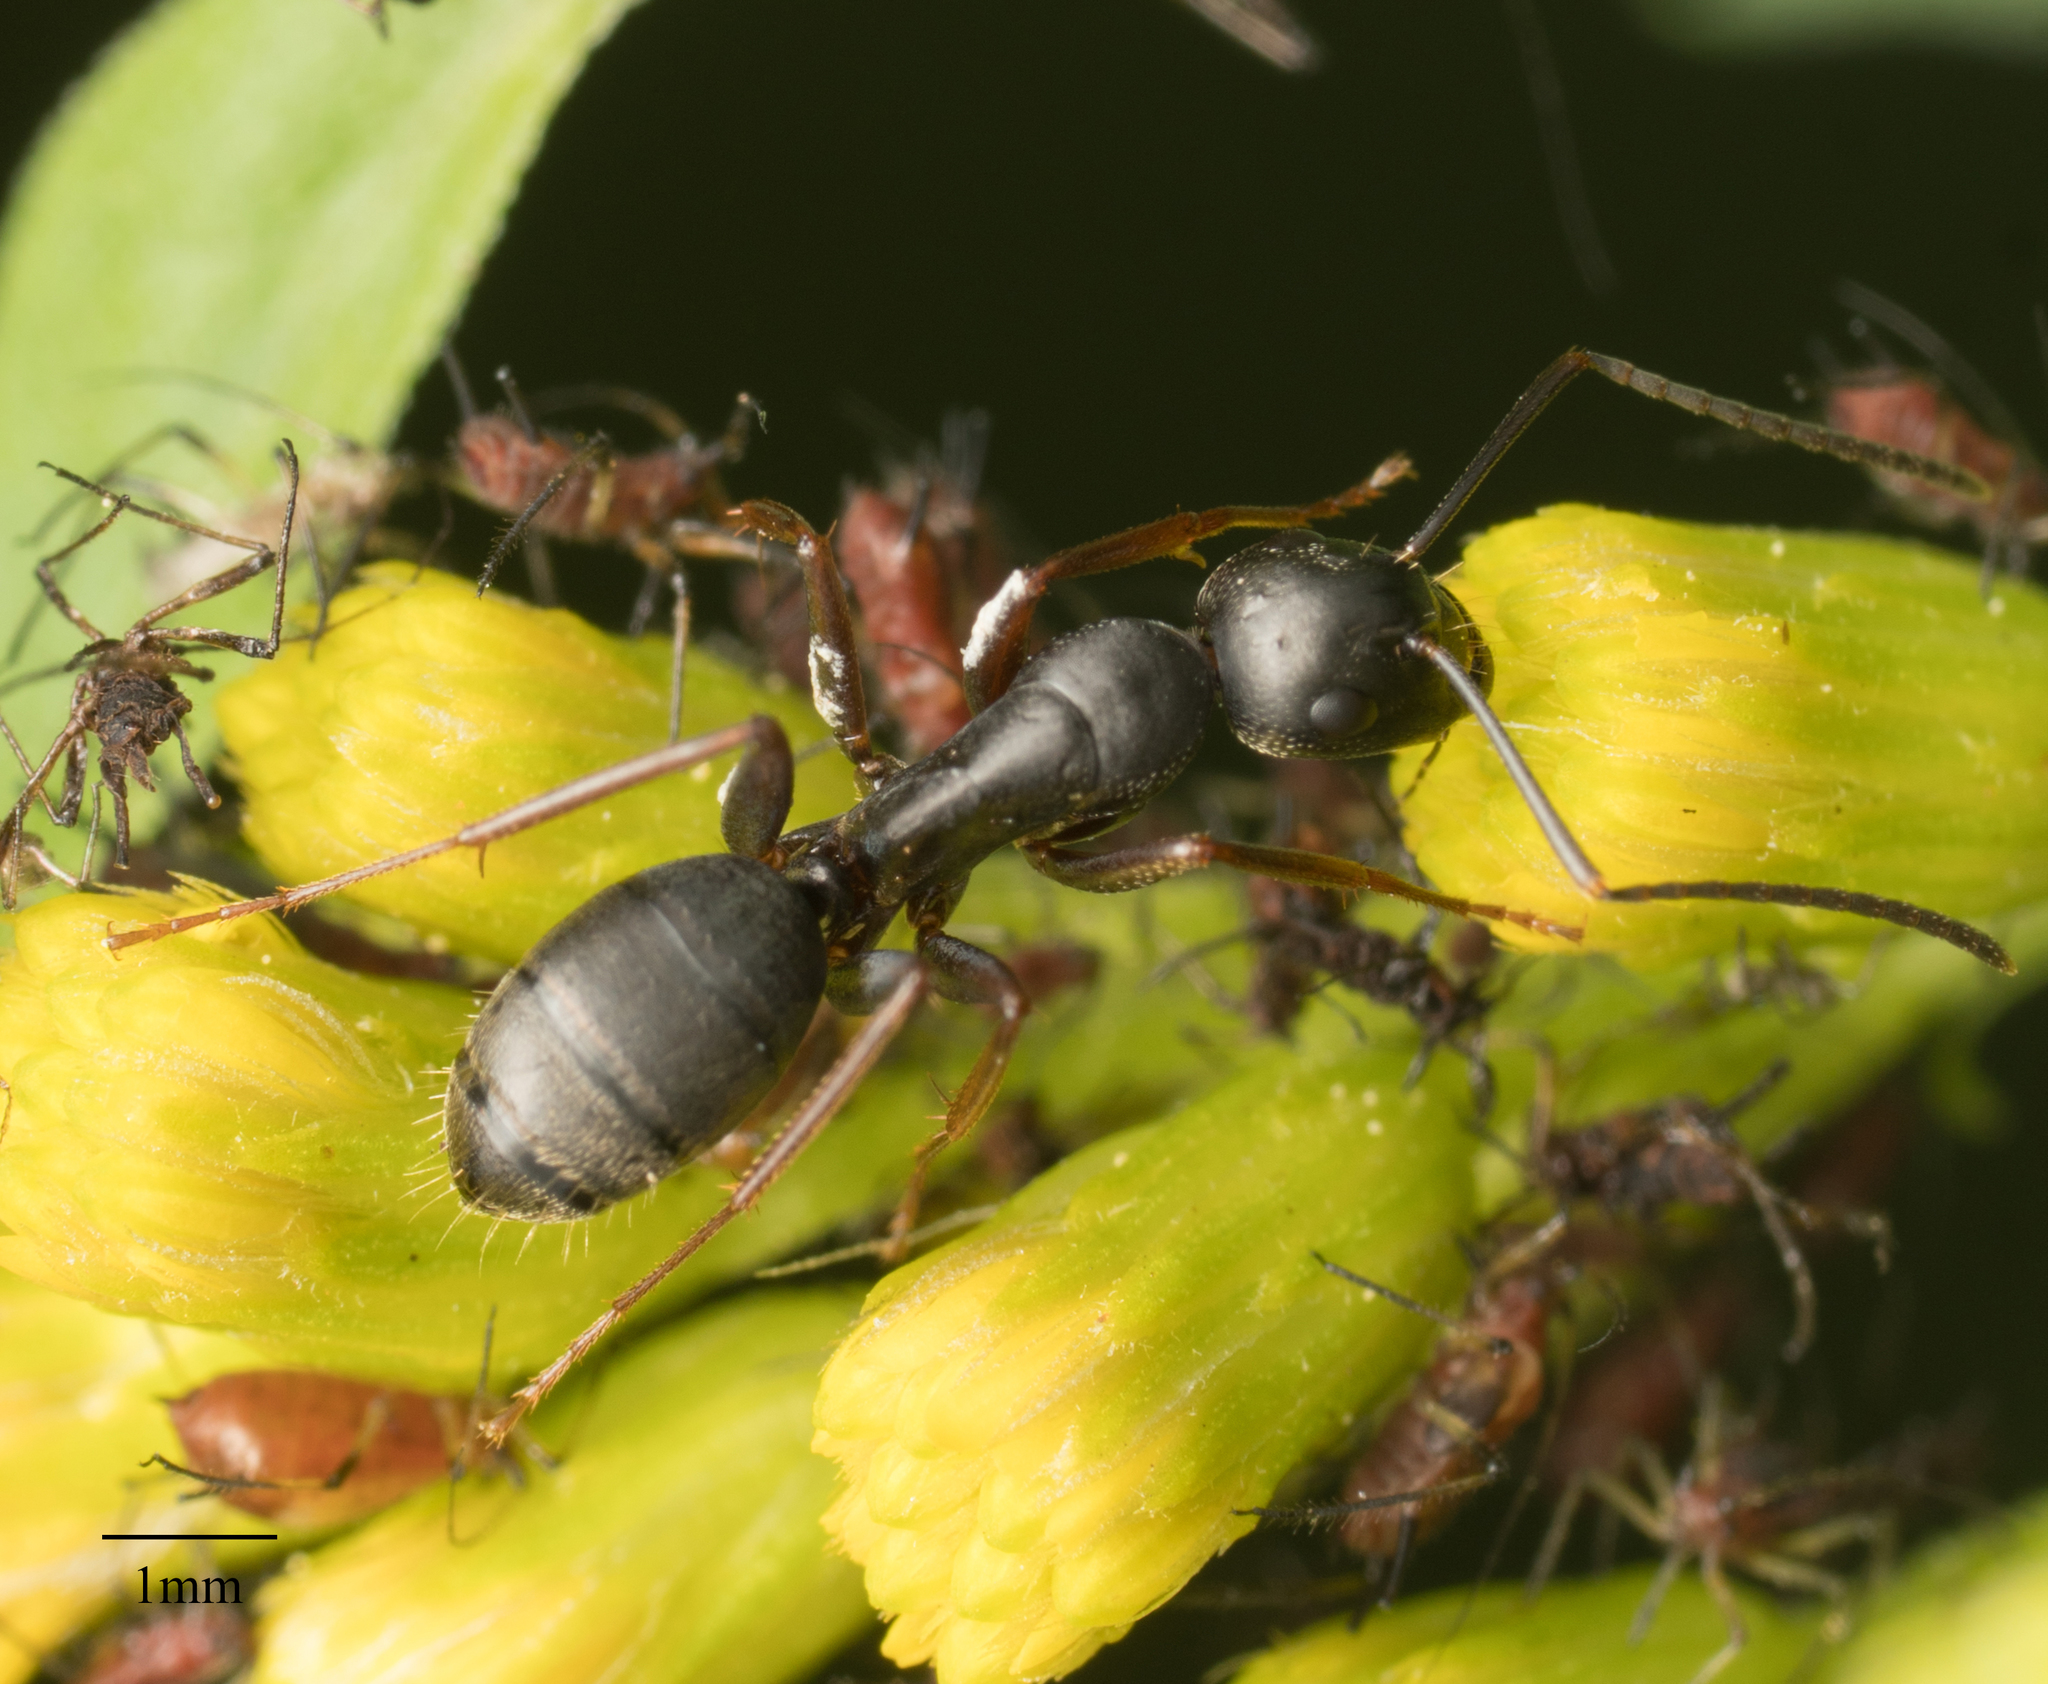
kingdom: Animalia
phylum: Arthropoda
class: Insecta
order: Hymenoptera
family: Formicidae
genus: Camponotus
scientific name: Camponotus modoc
